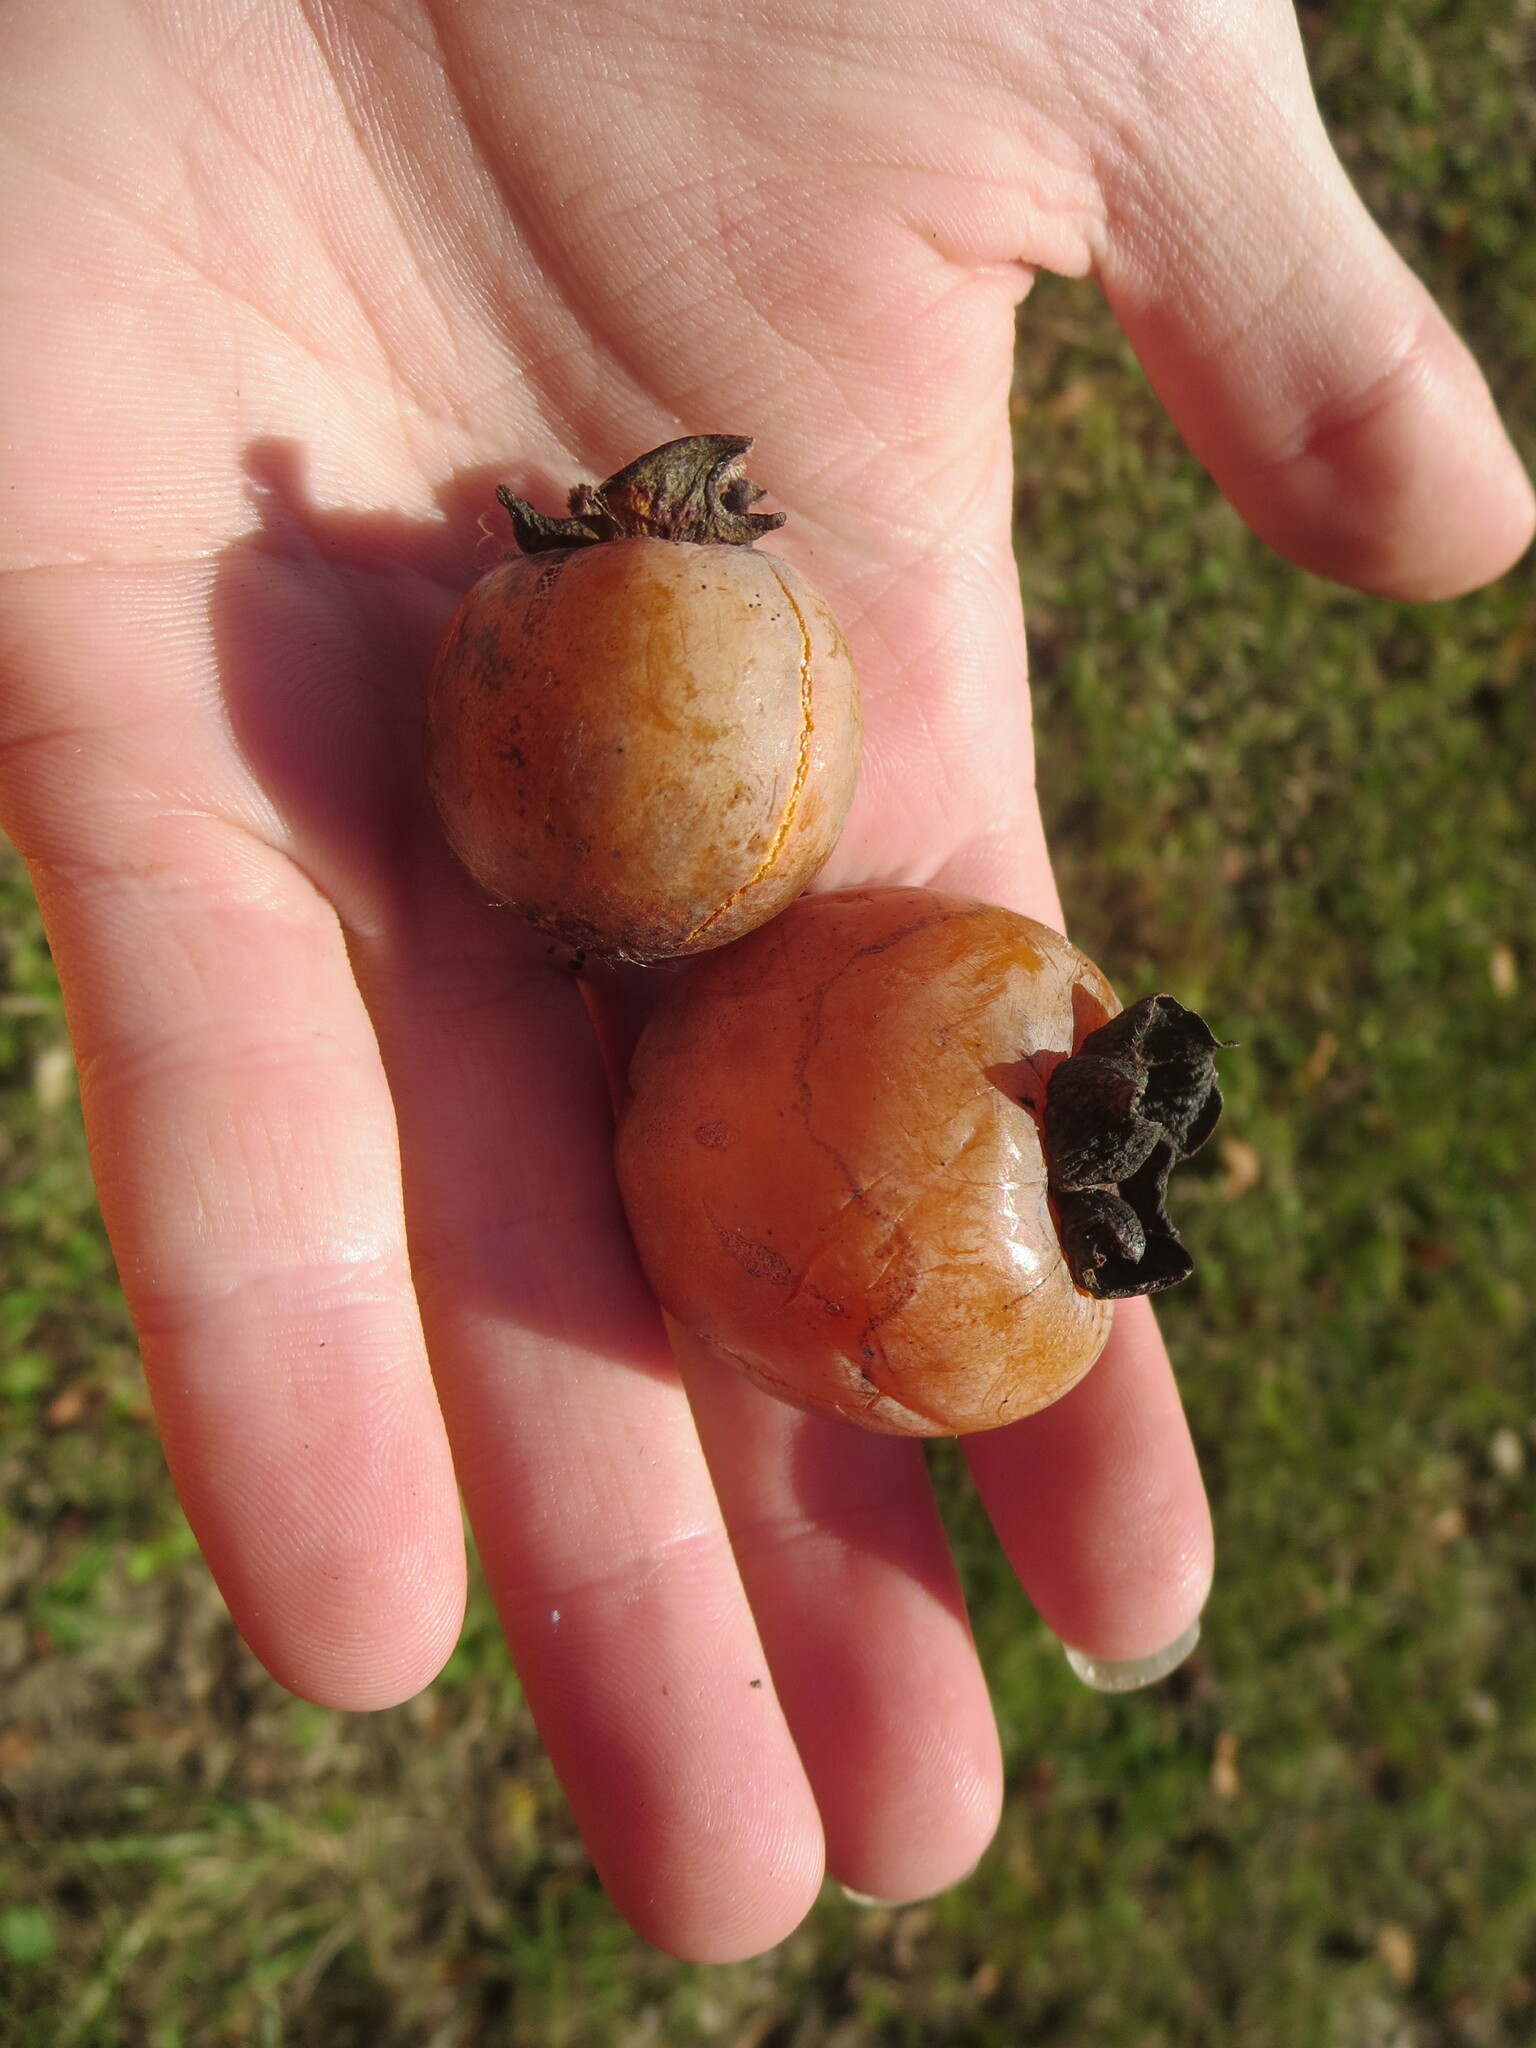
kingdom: Plantae
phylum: Tracheophyta
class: Magnoliopsida
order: Ericales
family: Ebenaceae
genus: Diospyros
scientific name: Diospyros virginiana
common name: Persimmon
